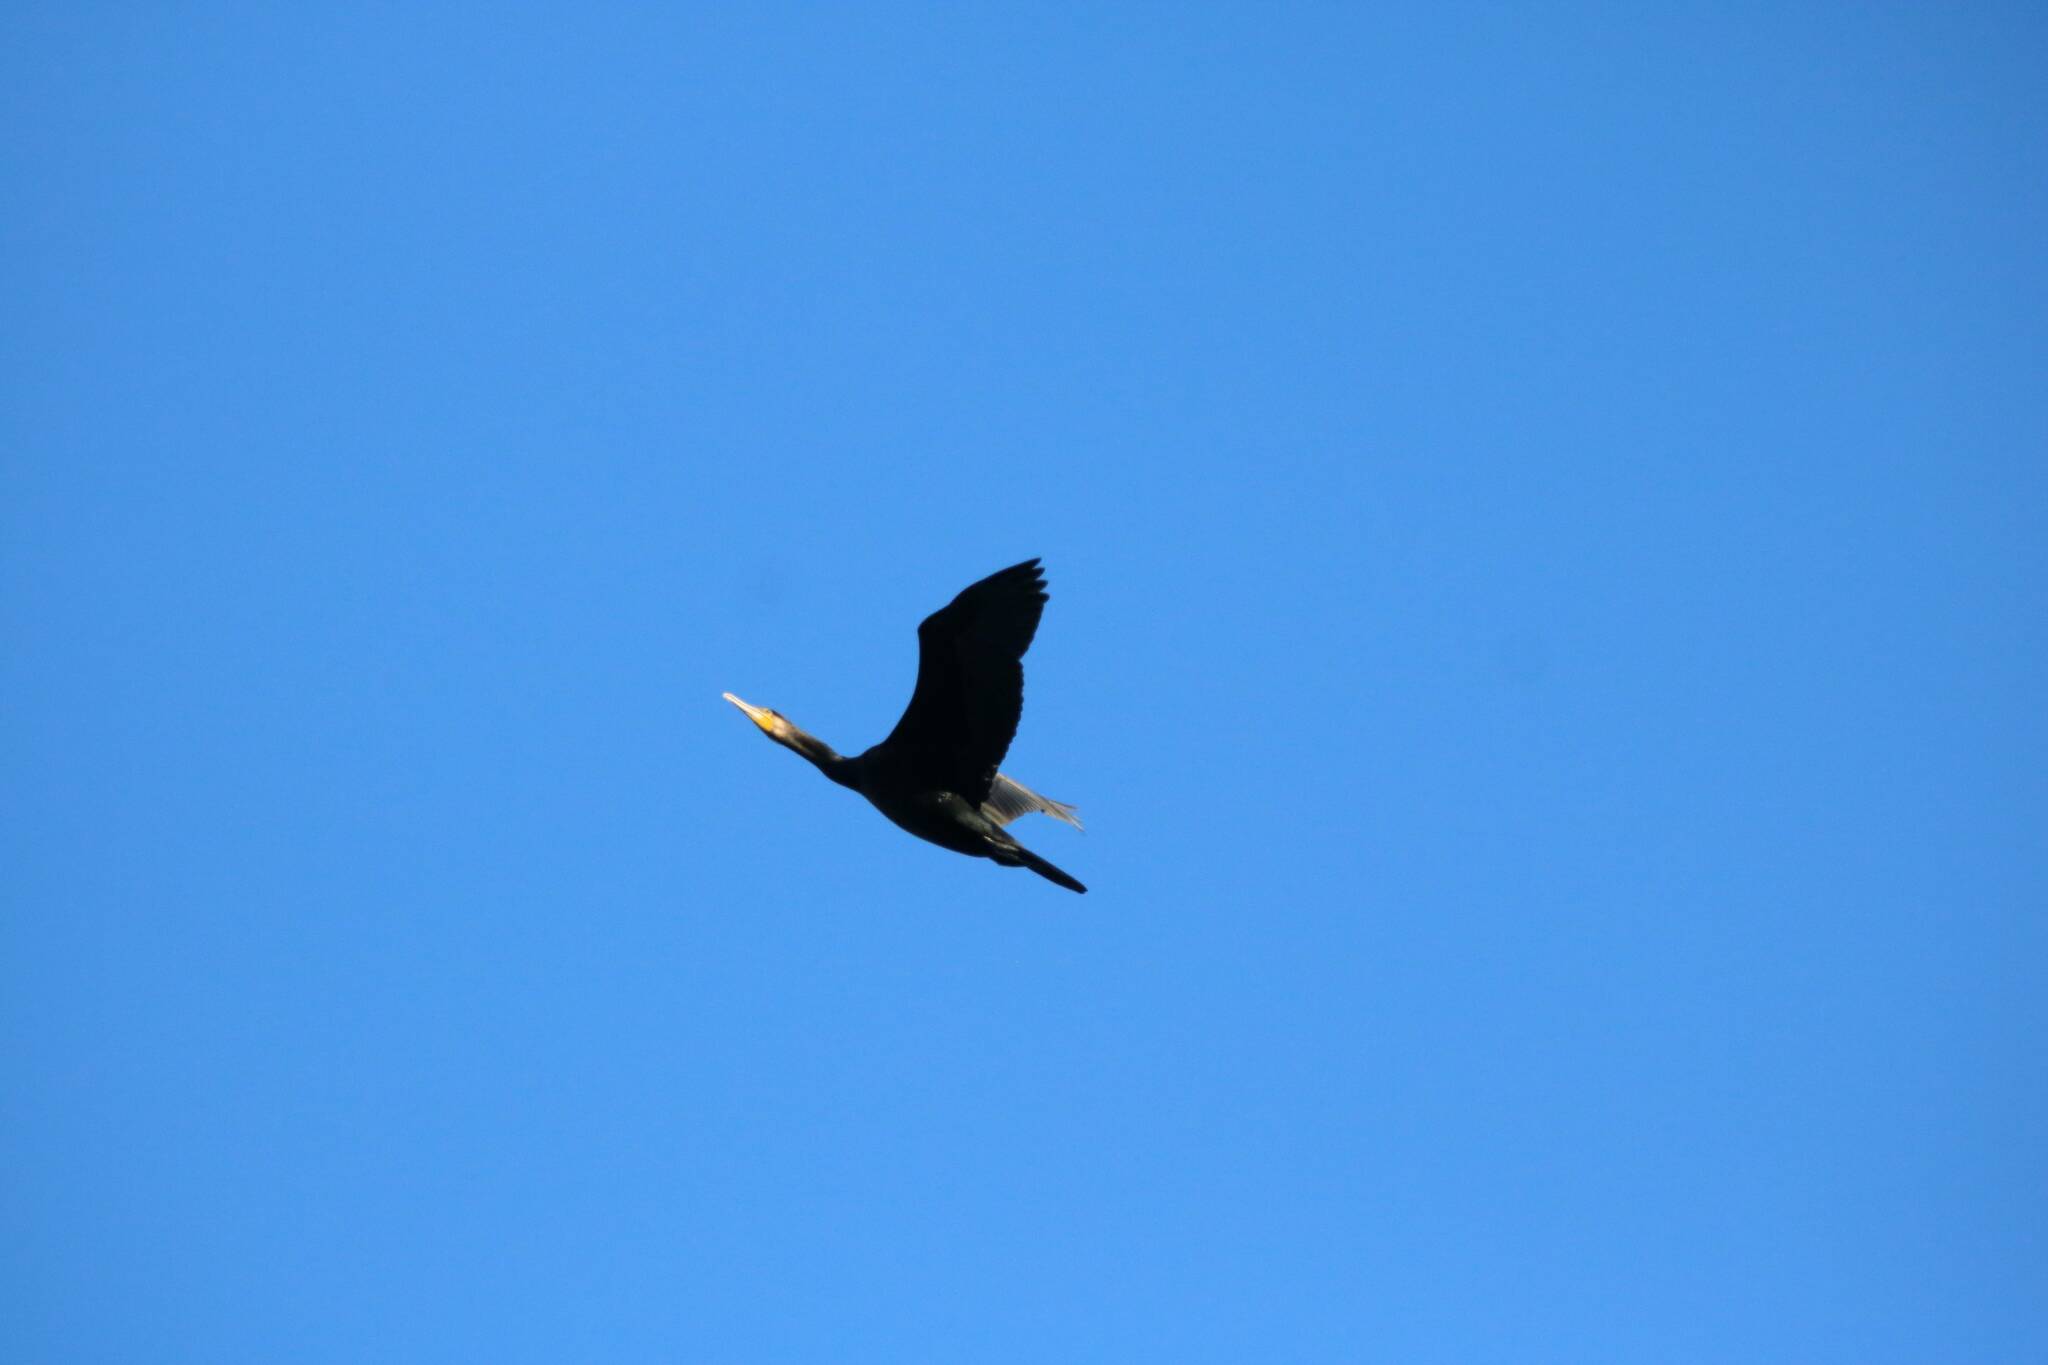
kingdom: Animalia
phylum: Chordata
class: Aves
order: Suliformes
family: Phalacrocoracidae
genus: Phalacrocorax
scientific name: Phalacrocorax carbo
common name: Great cormorant
